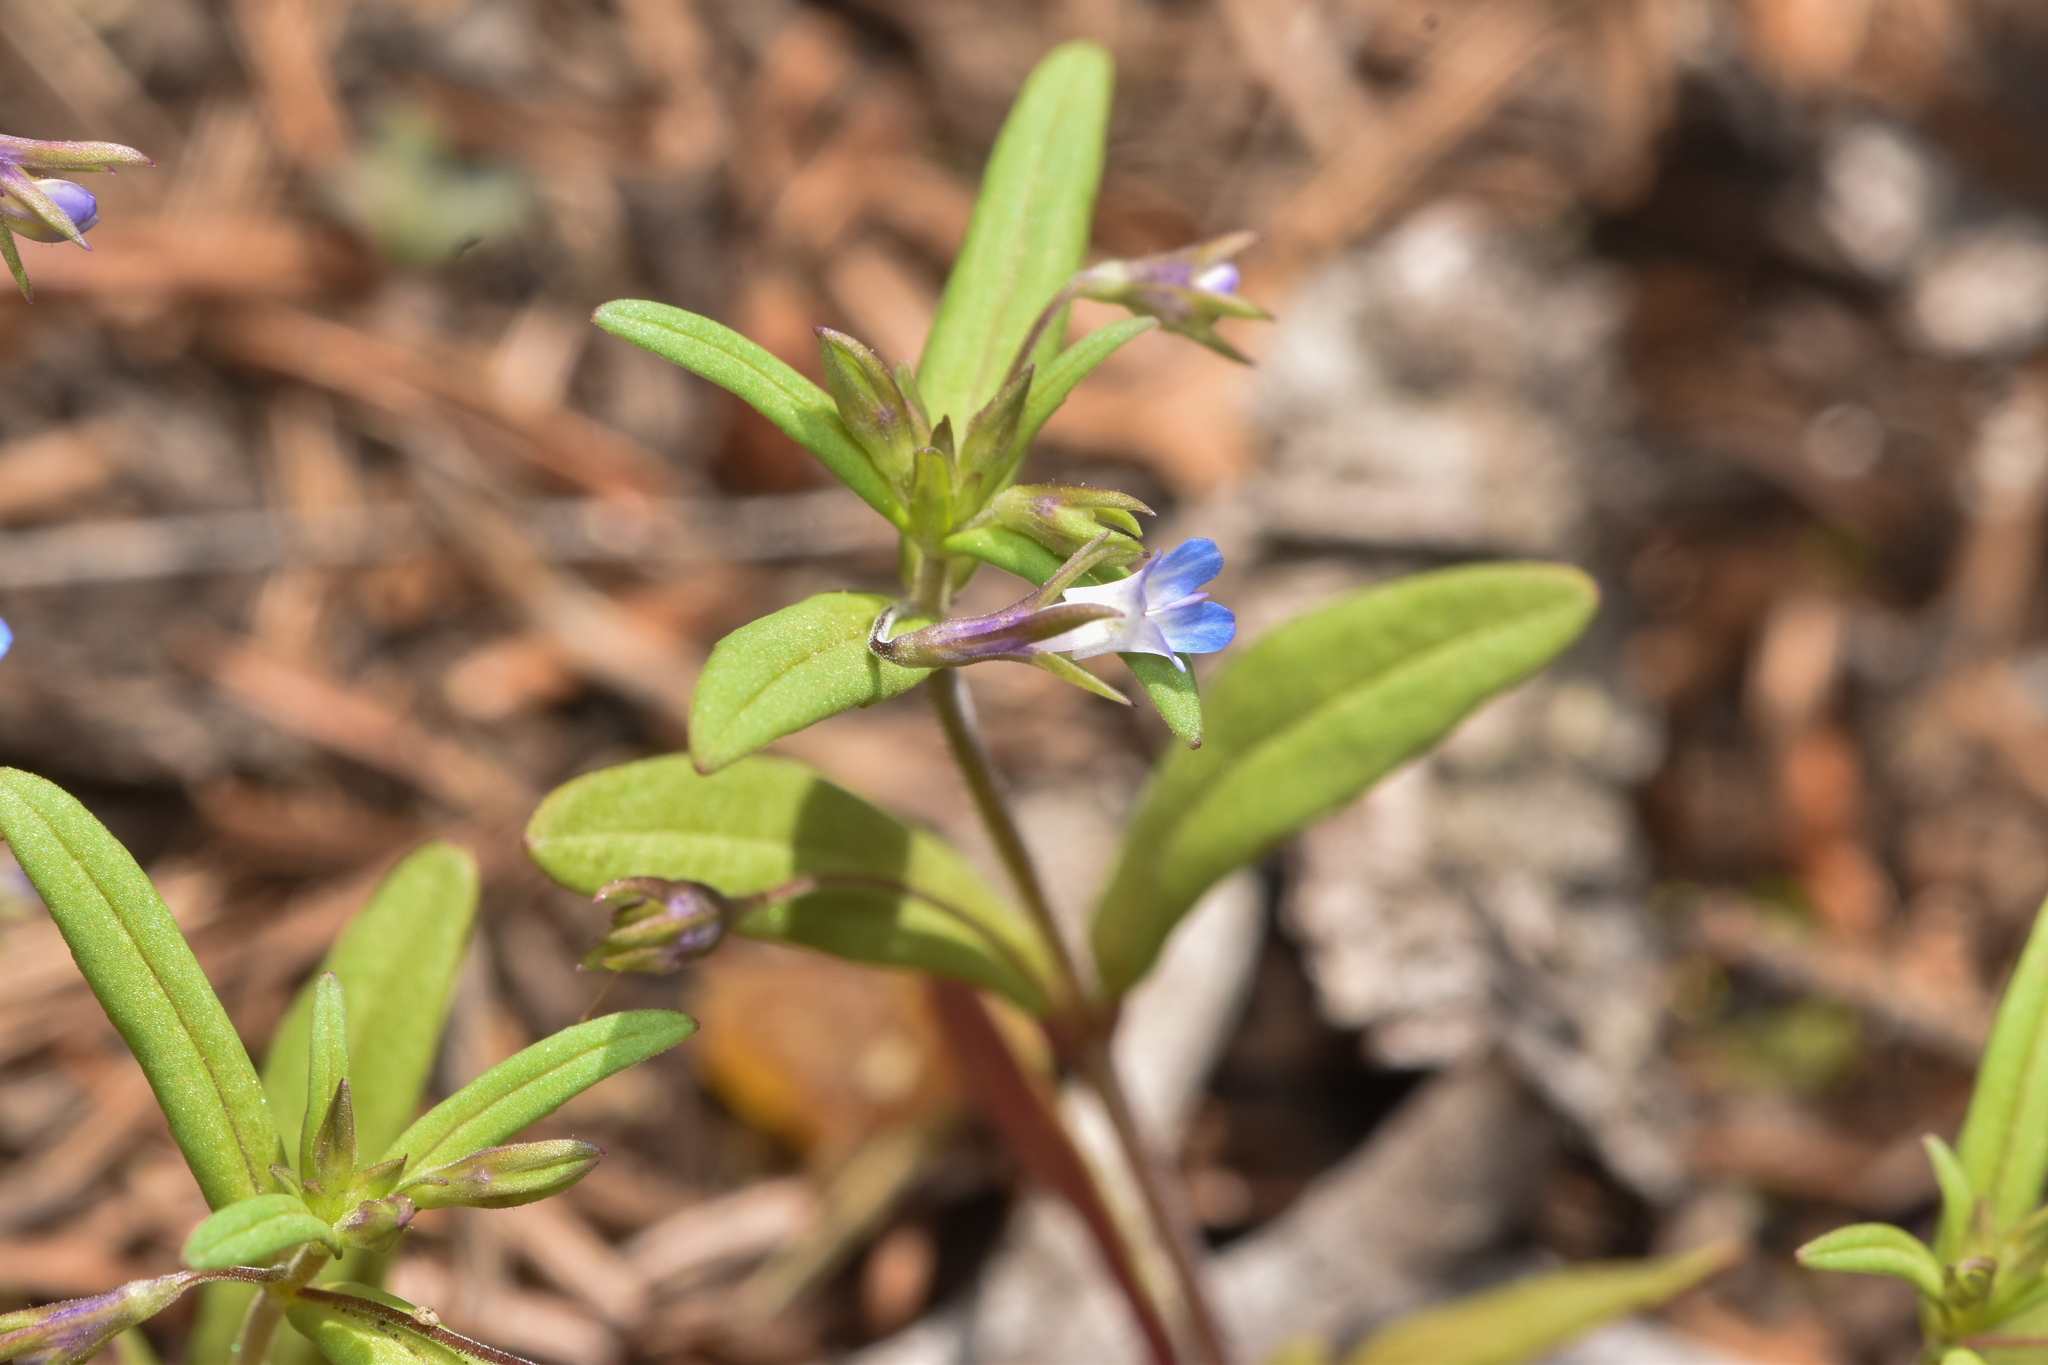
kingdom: Plantae
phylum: Tracheophyta
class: Magnoliopsida
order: Lamiales
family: Plantaginaceae
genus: Collinsia
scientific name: Collinsia parviflora
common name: Blue-lips
